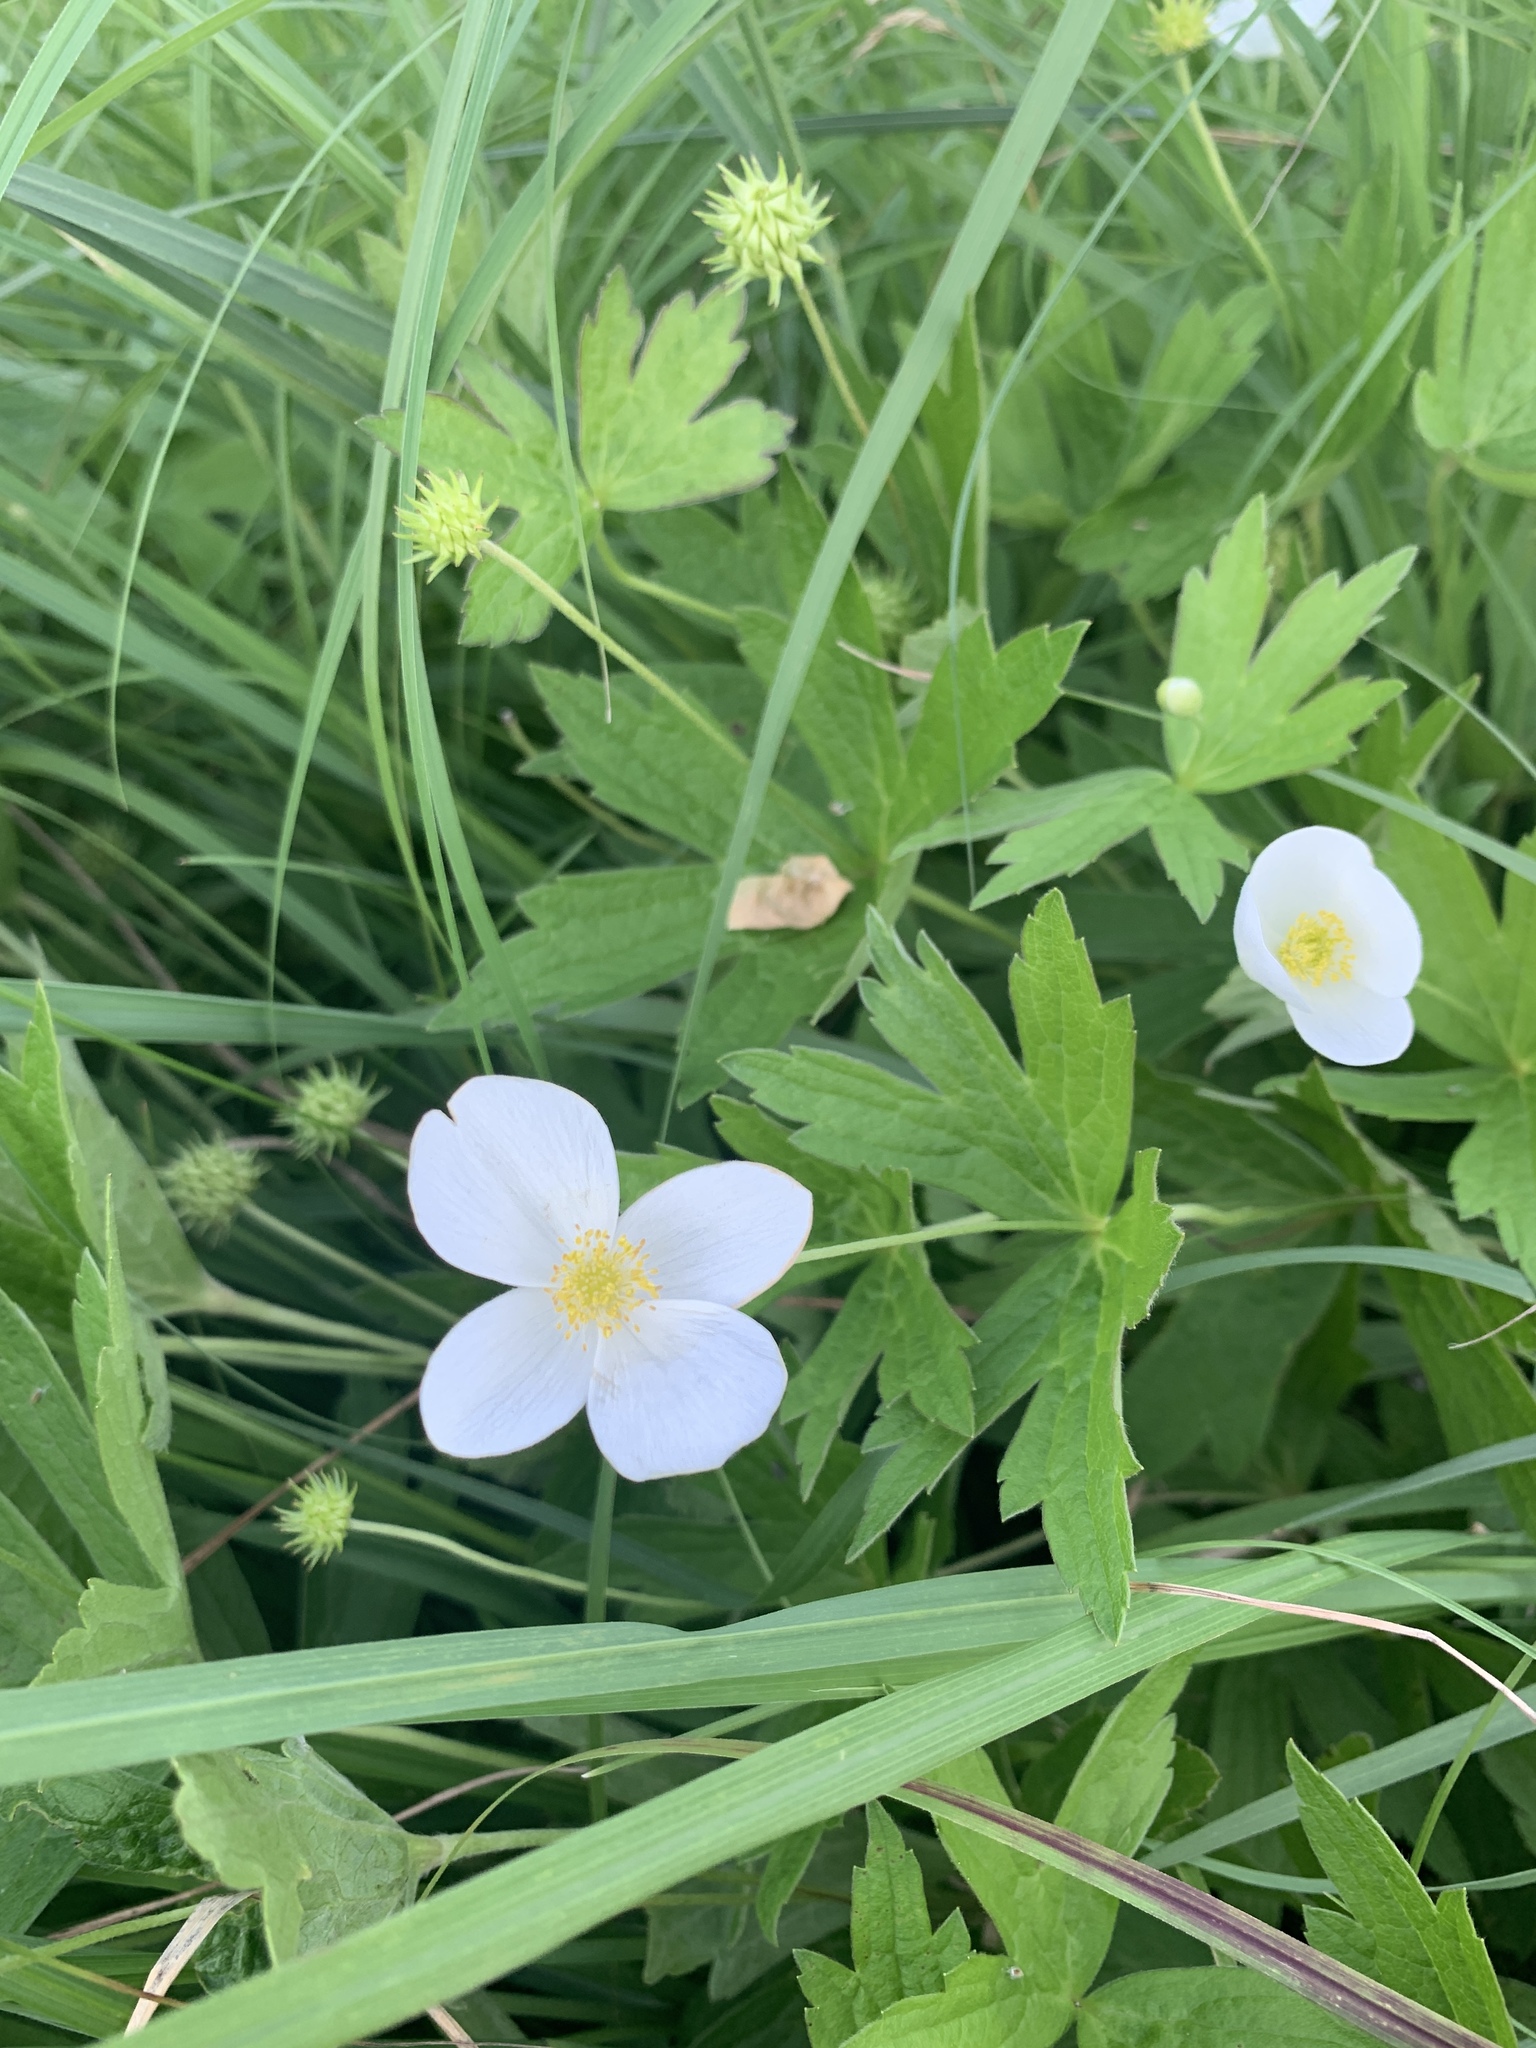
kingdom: Plantae
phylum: Tracheophyta
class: Magnoliopsida
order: Ranunculales
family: Ranunculaceae
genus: Anemonastrum
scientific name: Anemonastrum canadense
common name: Canada anemone
